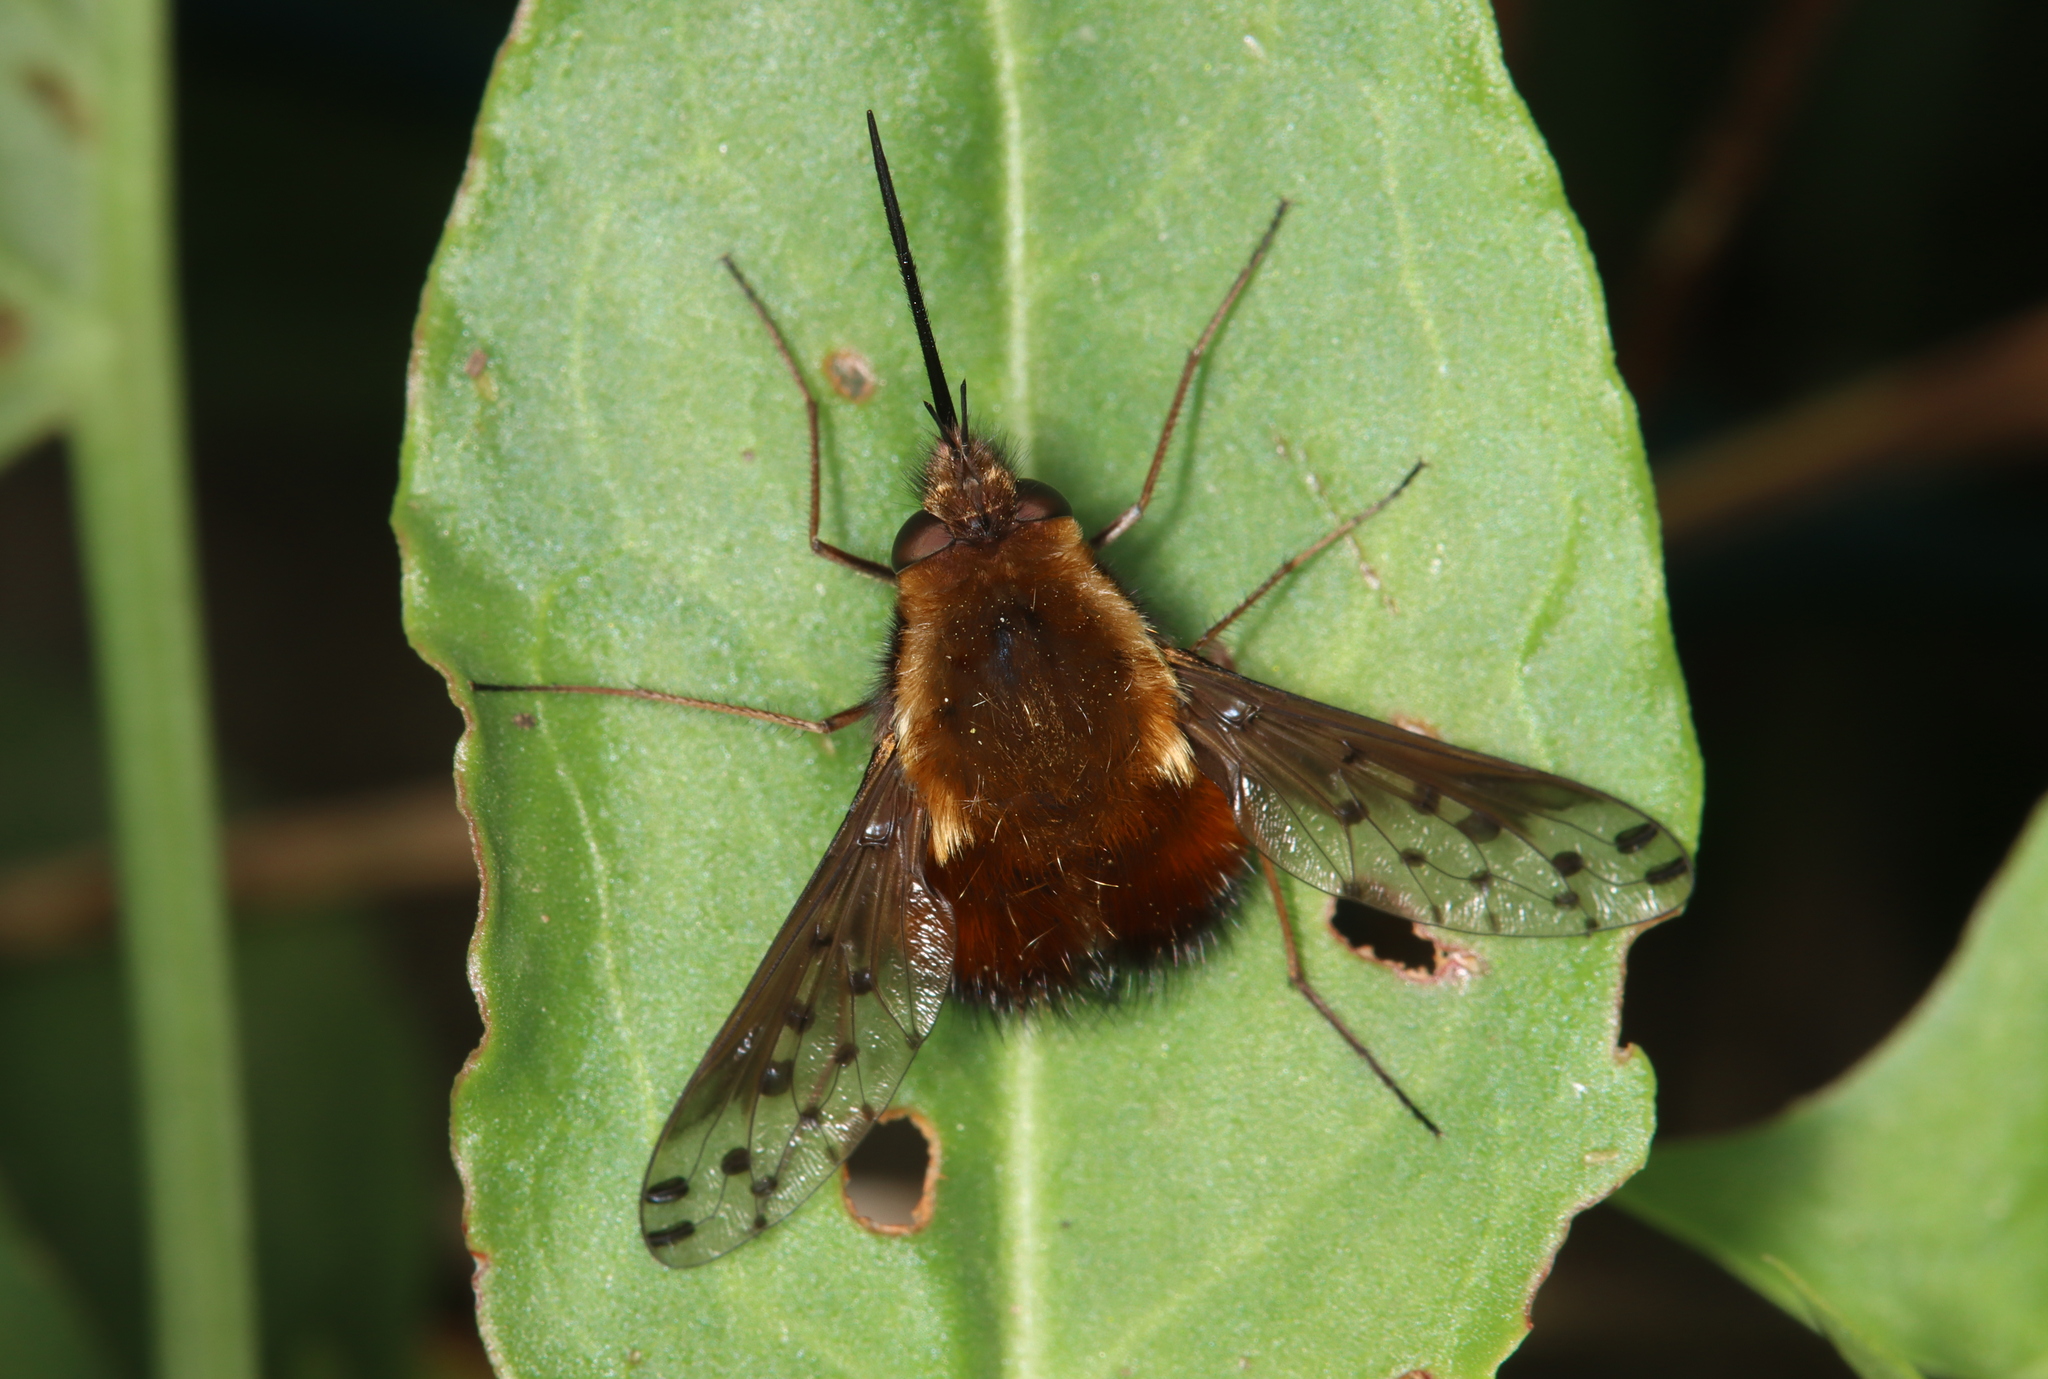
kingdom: Animalia
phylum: Arthropoda
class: Insecta
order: Diptera
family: Bombyliidae
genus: Bombylius
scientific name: Bombylius discolor
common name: Dotted bee-fly
